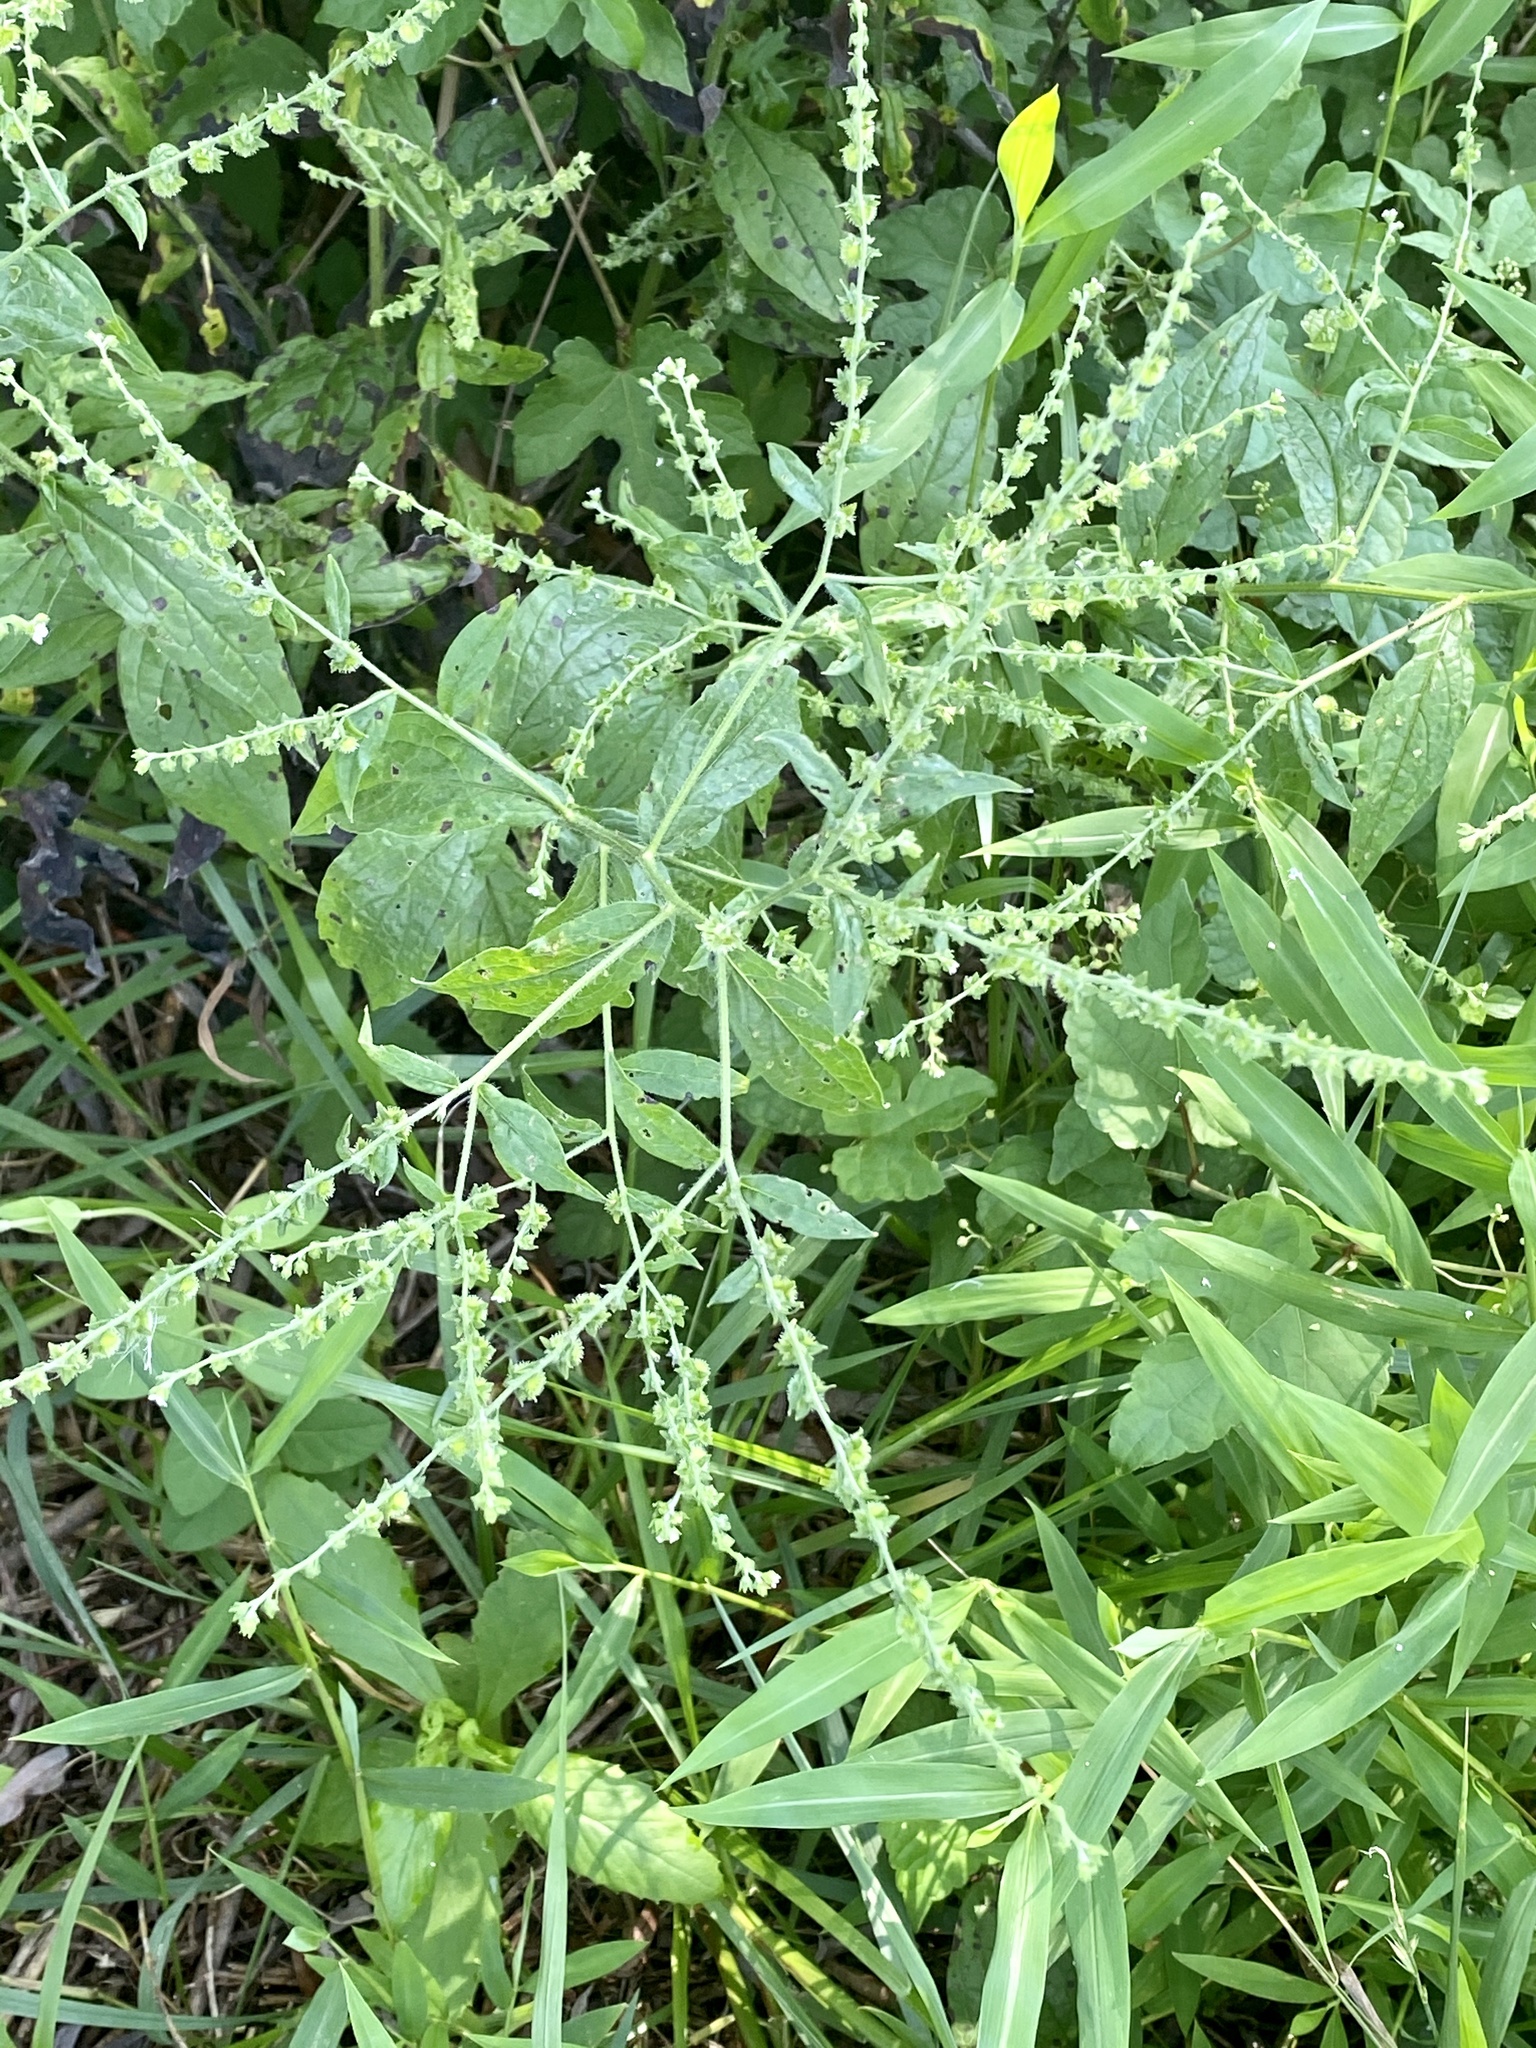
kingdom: Plantae
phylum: Tracheophyta
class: Magnoliopsida
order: Boraginales
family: Boraginaceae
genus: Hackelia
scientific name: Hackelia virginiana
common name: Beggar's-lice
